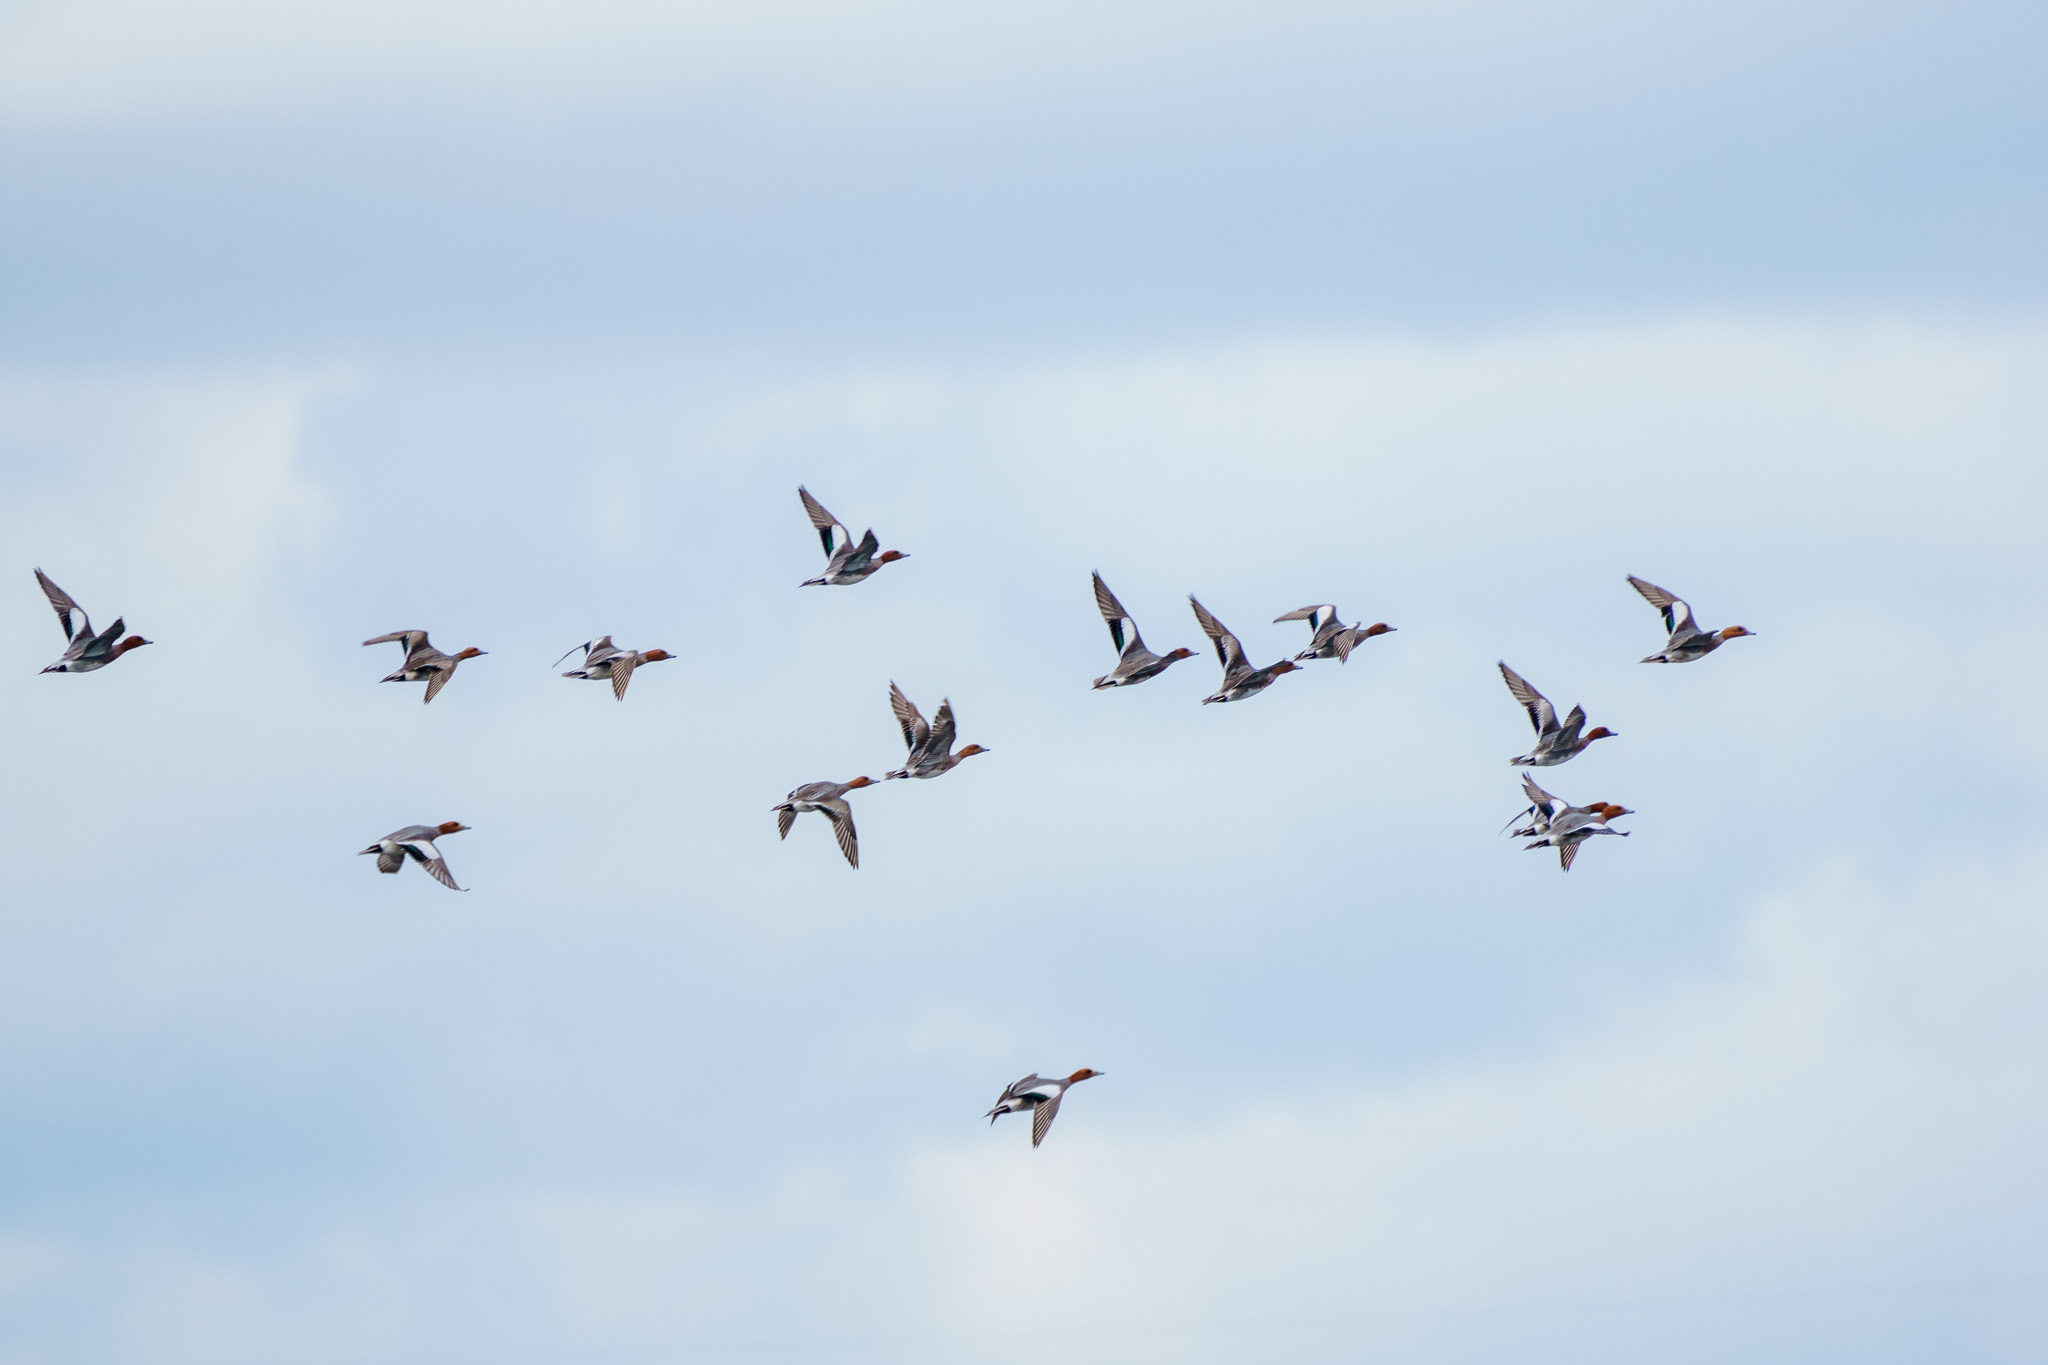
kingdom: Animalia
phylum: Chordata
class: Aves
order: Anseriformes
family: Anatidae
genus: Mareca
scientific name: Mareca penelope
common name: Eurasian wigeon
